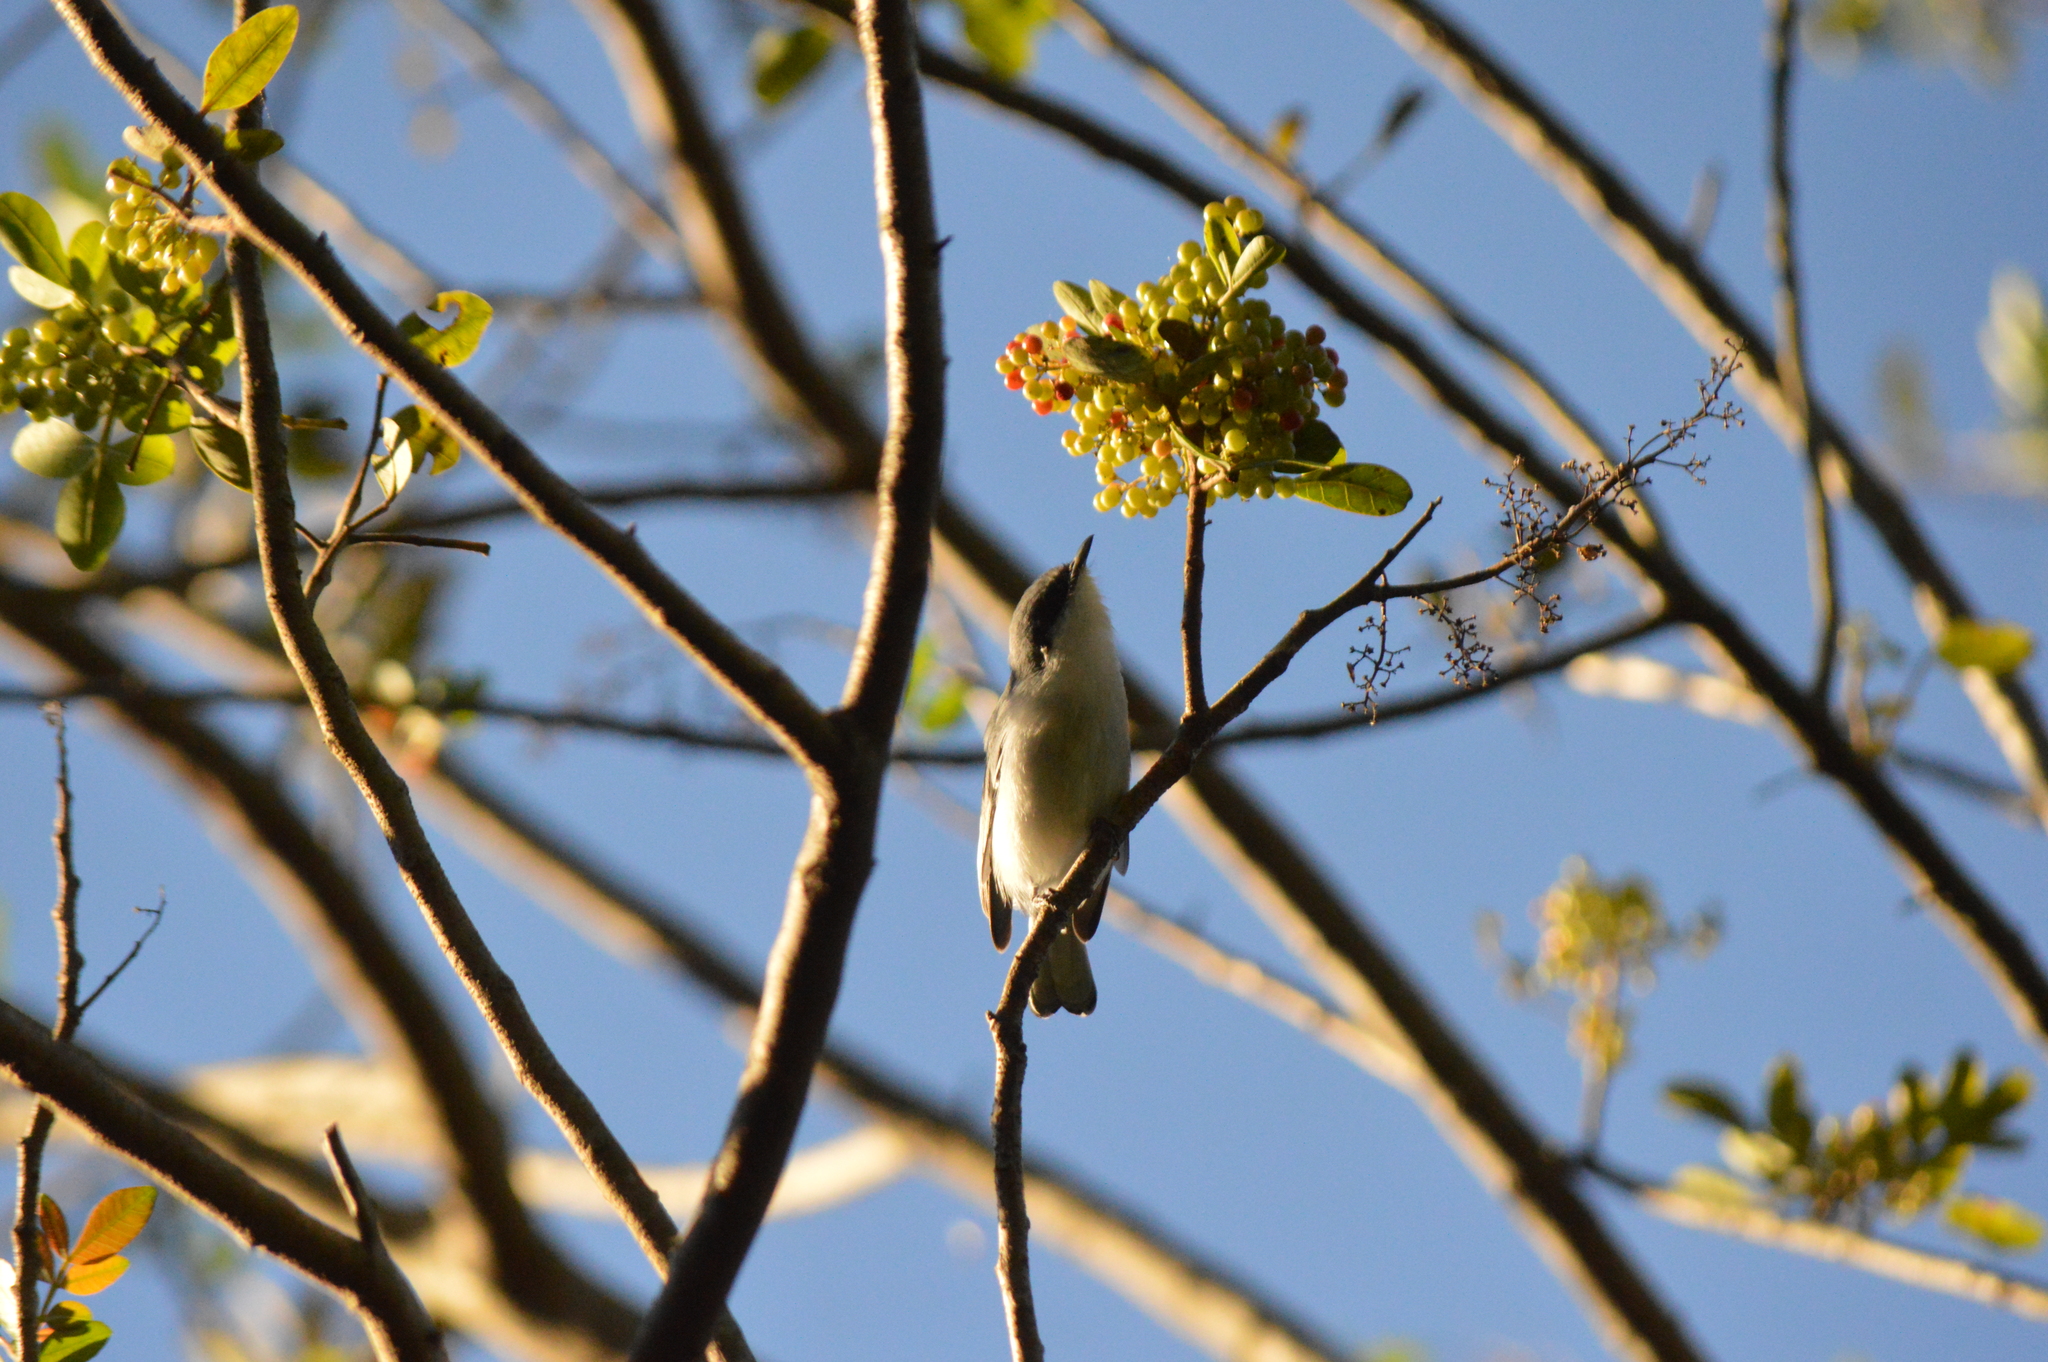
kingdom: Animalia
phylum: Chordata
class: Aves
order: Passeriformes
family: Polioptilidae
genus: Polioptila
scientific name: Polioptila dumicola
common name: Masked gnatcatcher
